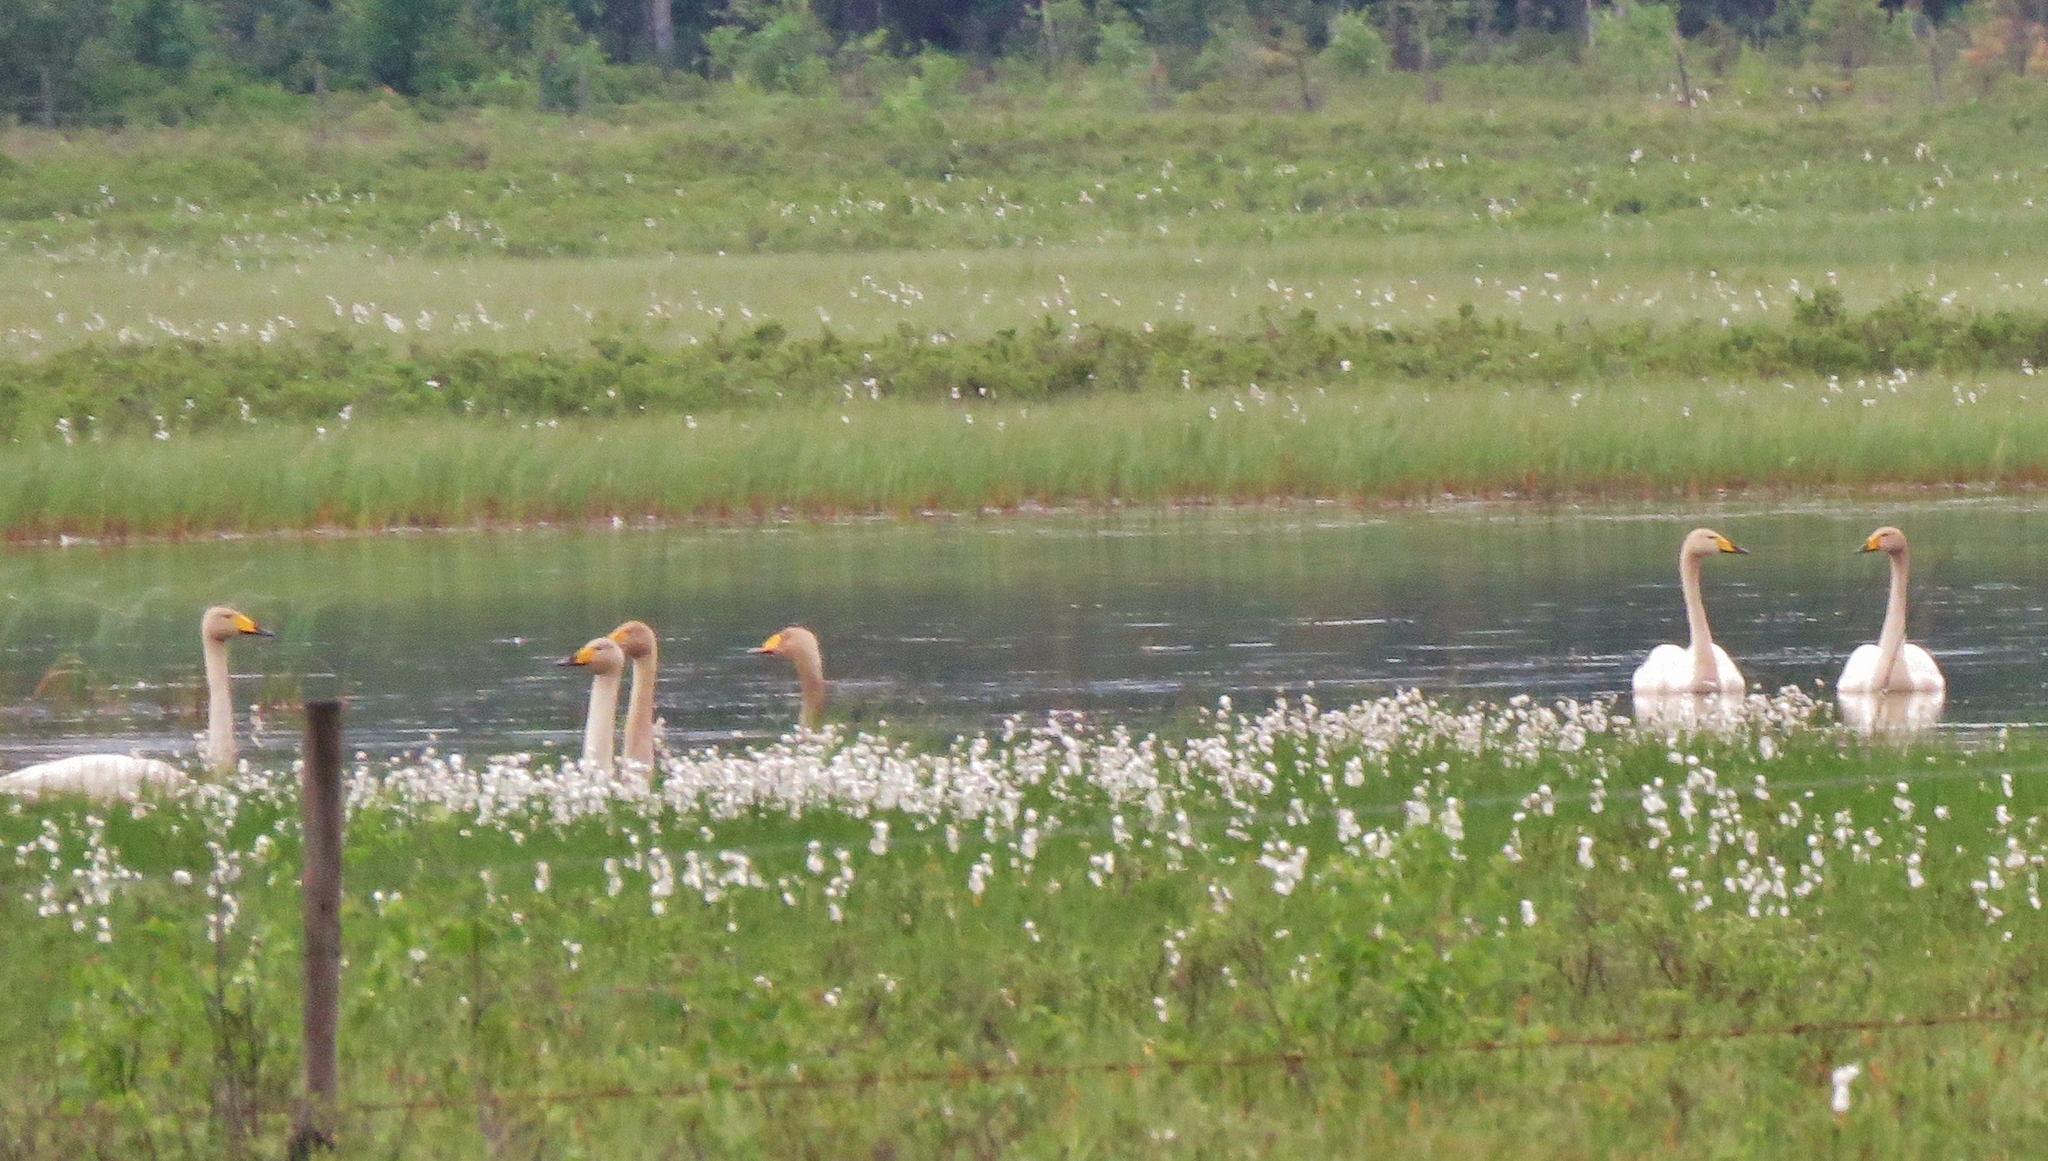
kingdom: Animalia
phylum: Chordata
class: Aves
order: Anseriformes
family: Anatidae
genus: Cygnus
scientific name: Cygnus cygnus
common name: Whooper swan
